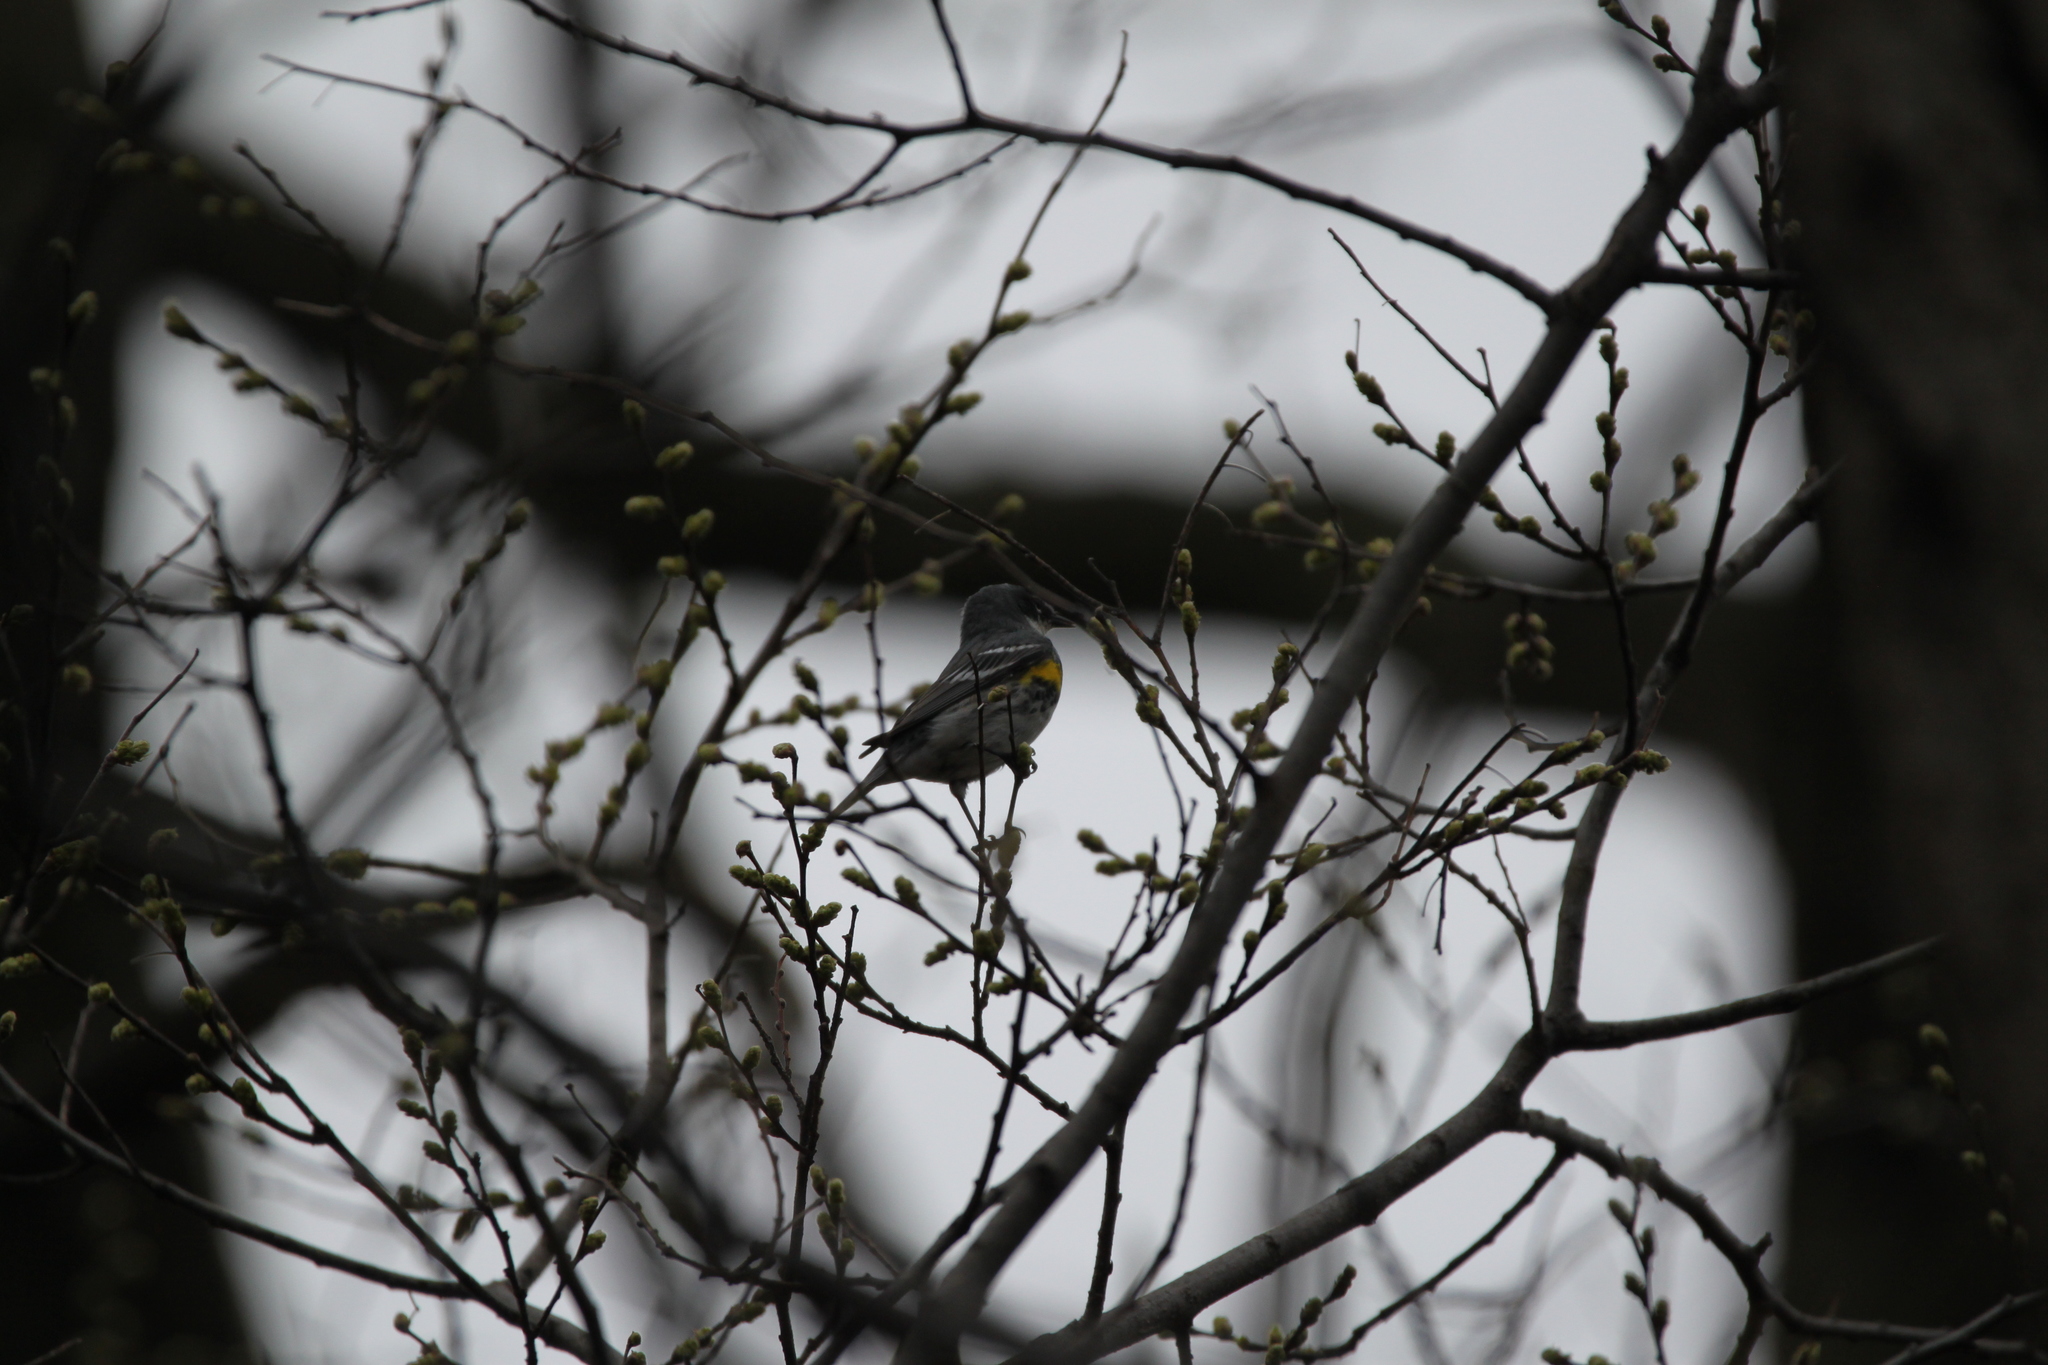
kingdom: Animalia
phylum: Chordata
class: Aves
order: Passeriformes
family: Parulidae
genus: Setophaga
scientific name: Setophaga coronata
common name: Myrtle warbler
